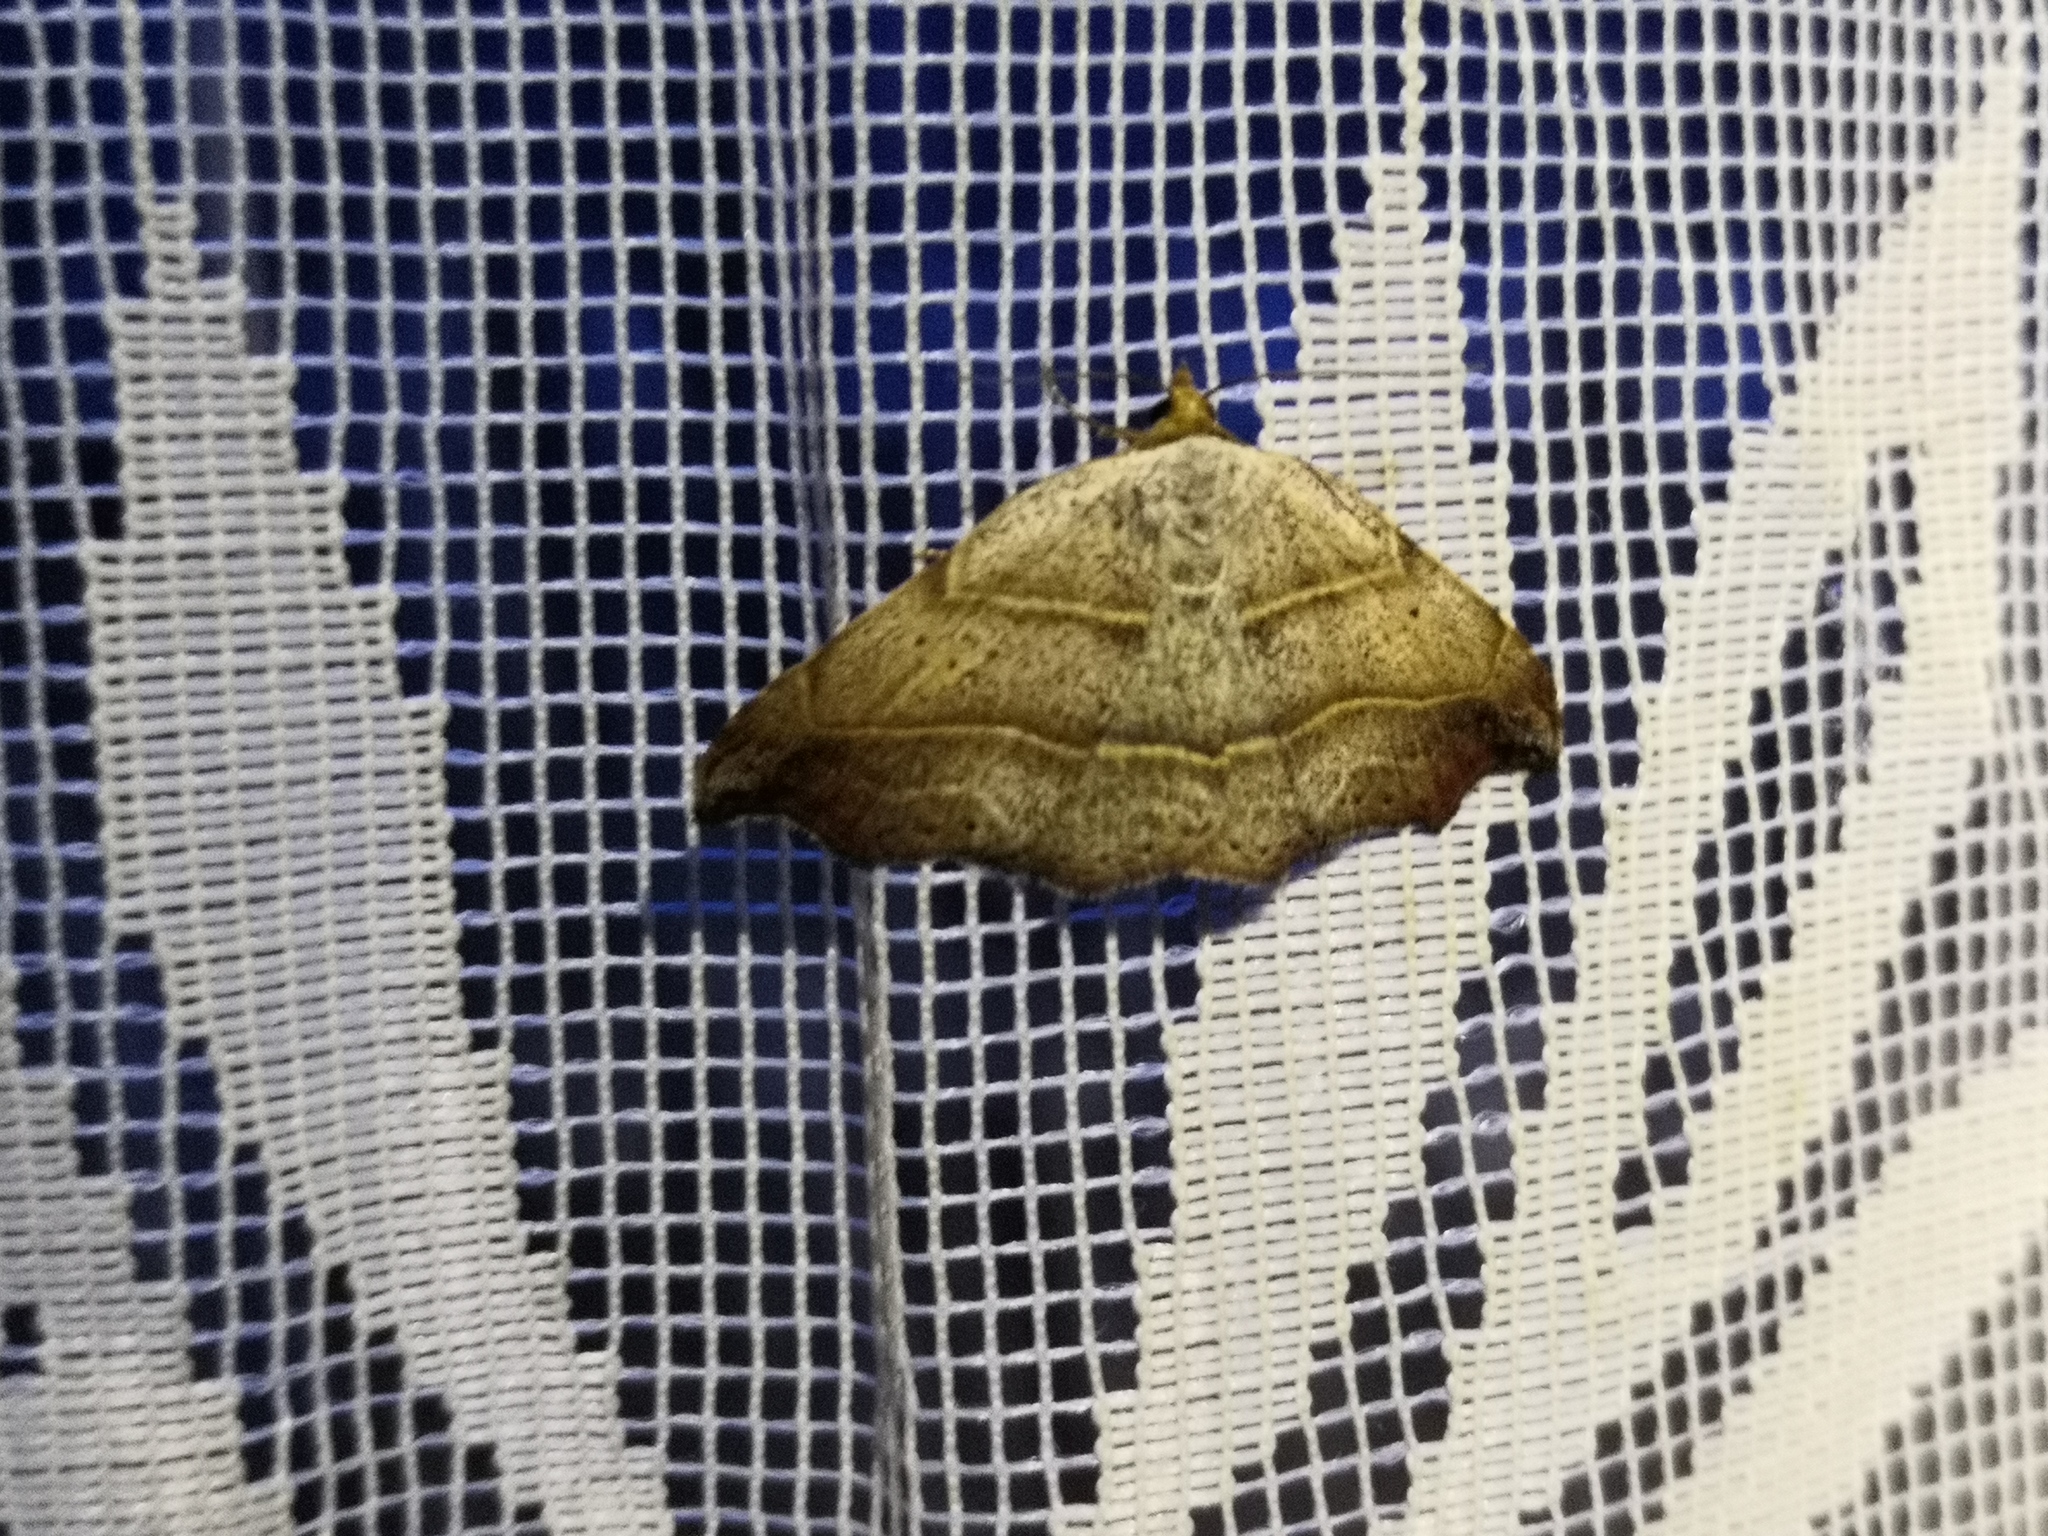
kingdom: Animalia
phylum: Arthropoda
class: Insecta
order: Lepidoptera
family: Erebidae
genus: Laspeyria
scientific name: Laspeyria flexula
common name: Beautiful hook-tip
